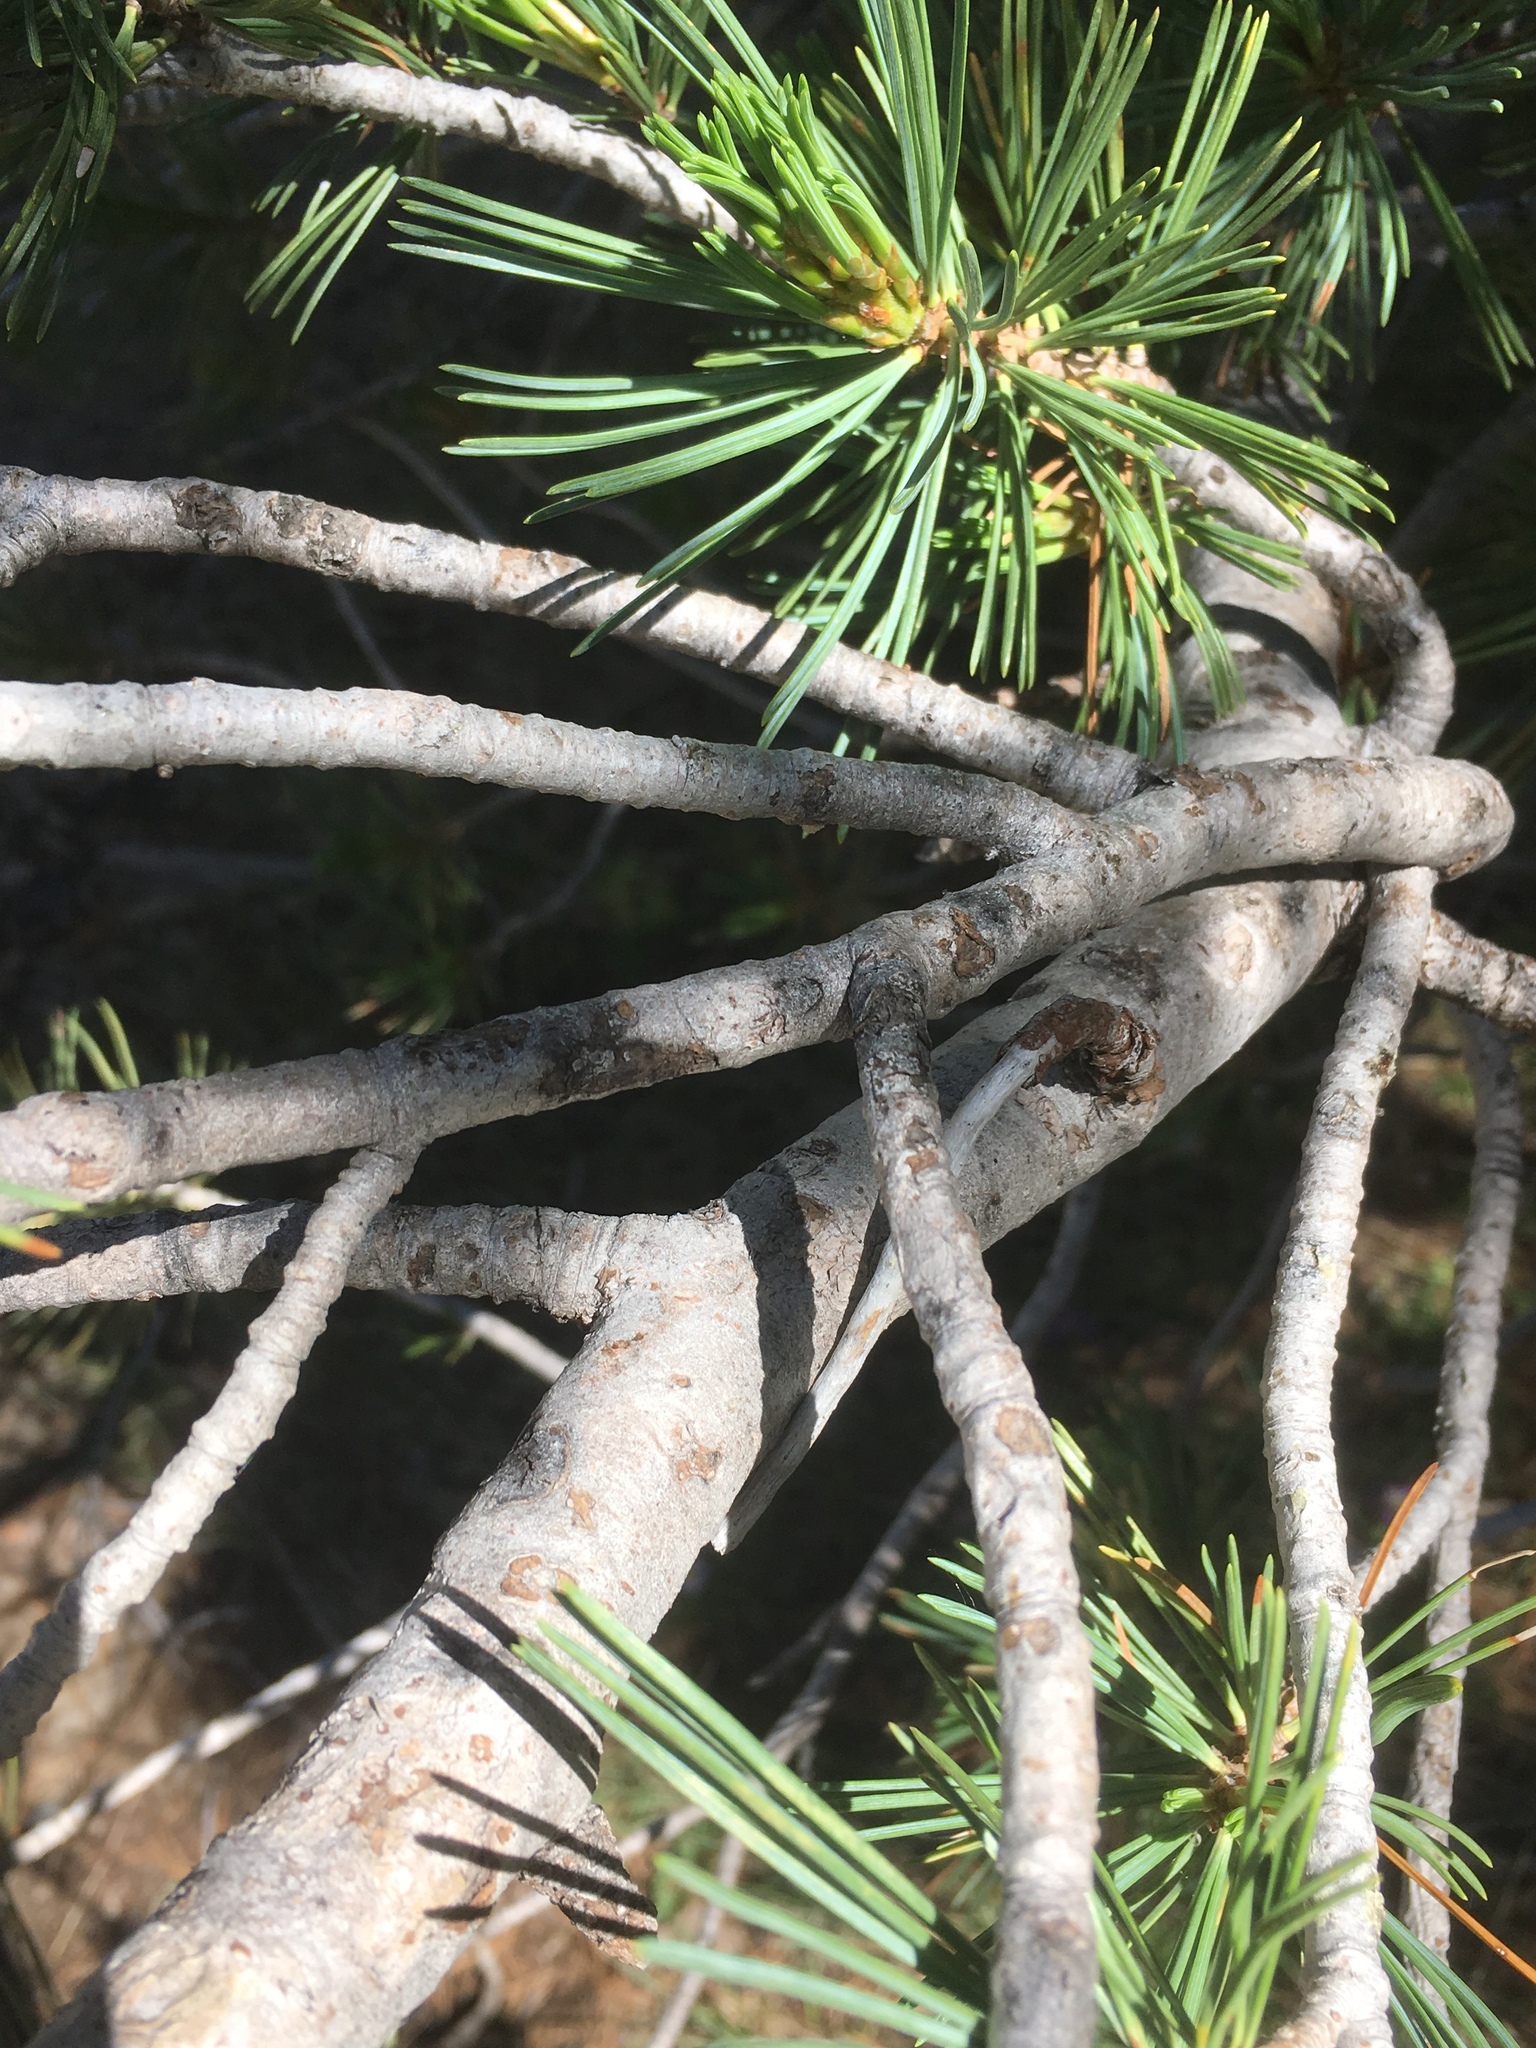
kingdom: Plantae
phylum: Tracheophyta
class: Pinopsida
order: Pinales
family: Pinaceae
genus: Pinus
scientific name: Pinus albicaulis
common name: Whitebark pine
